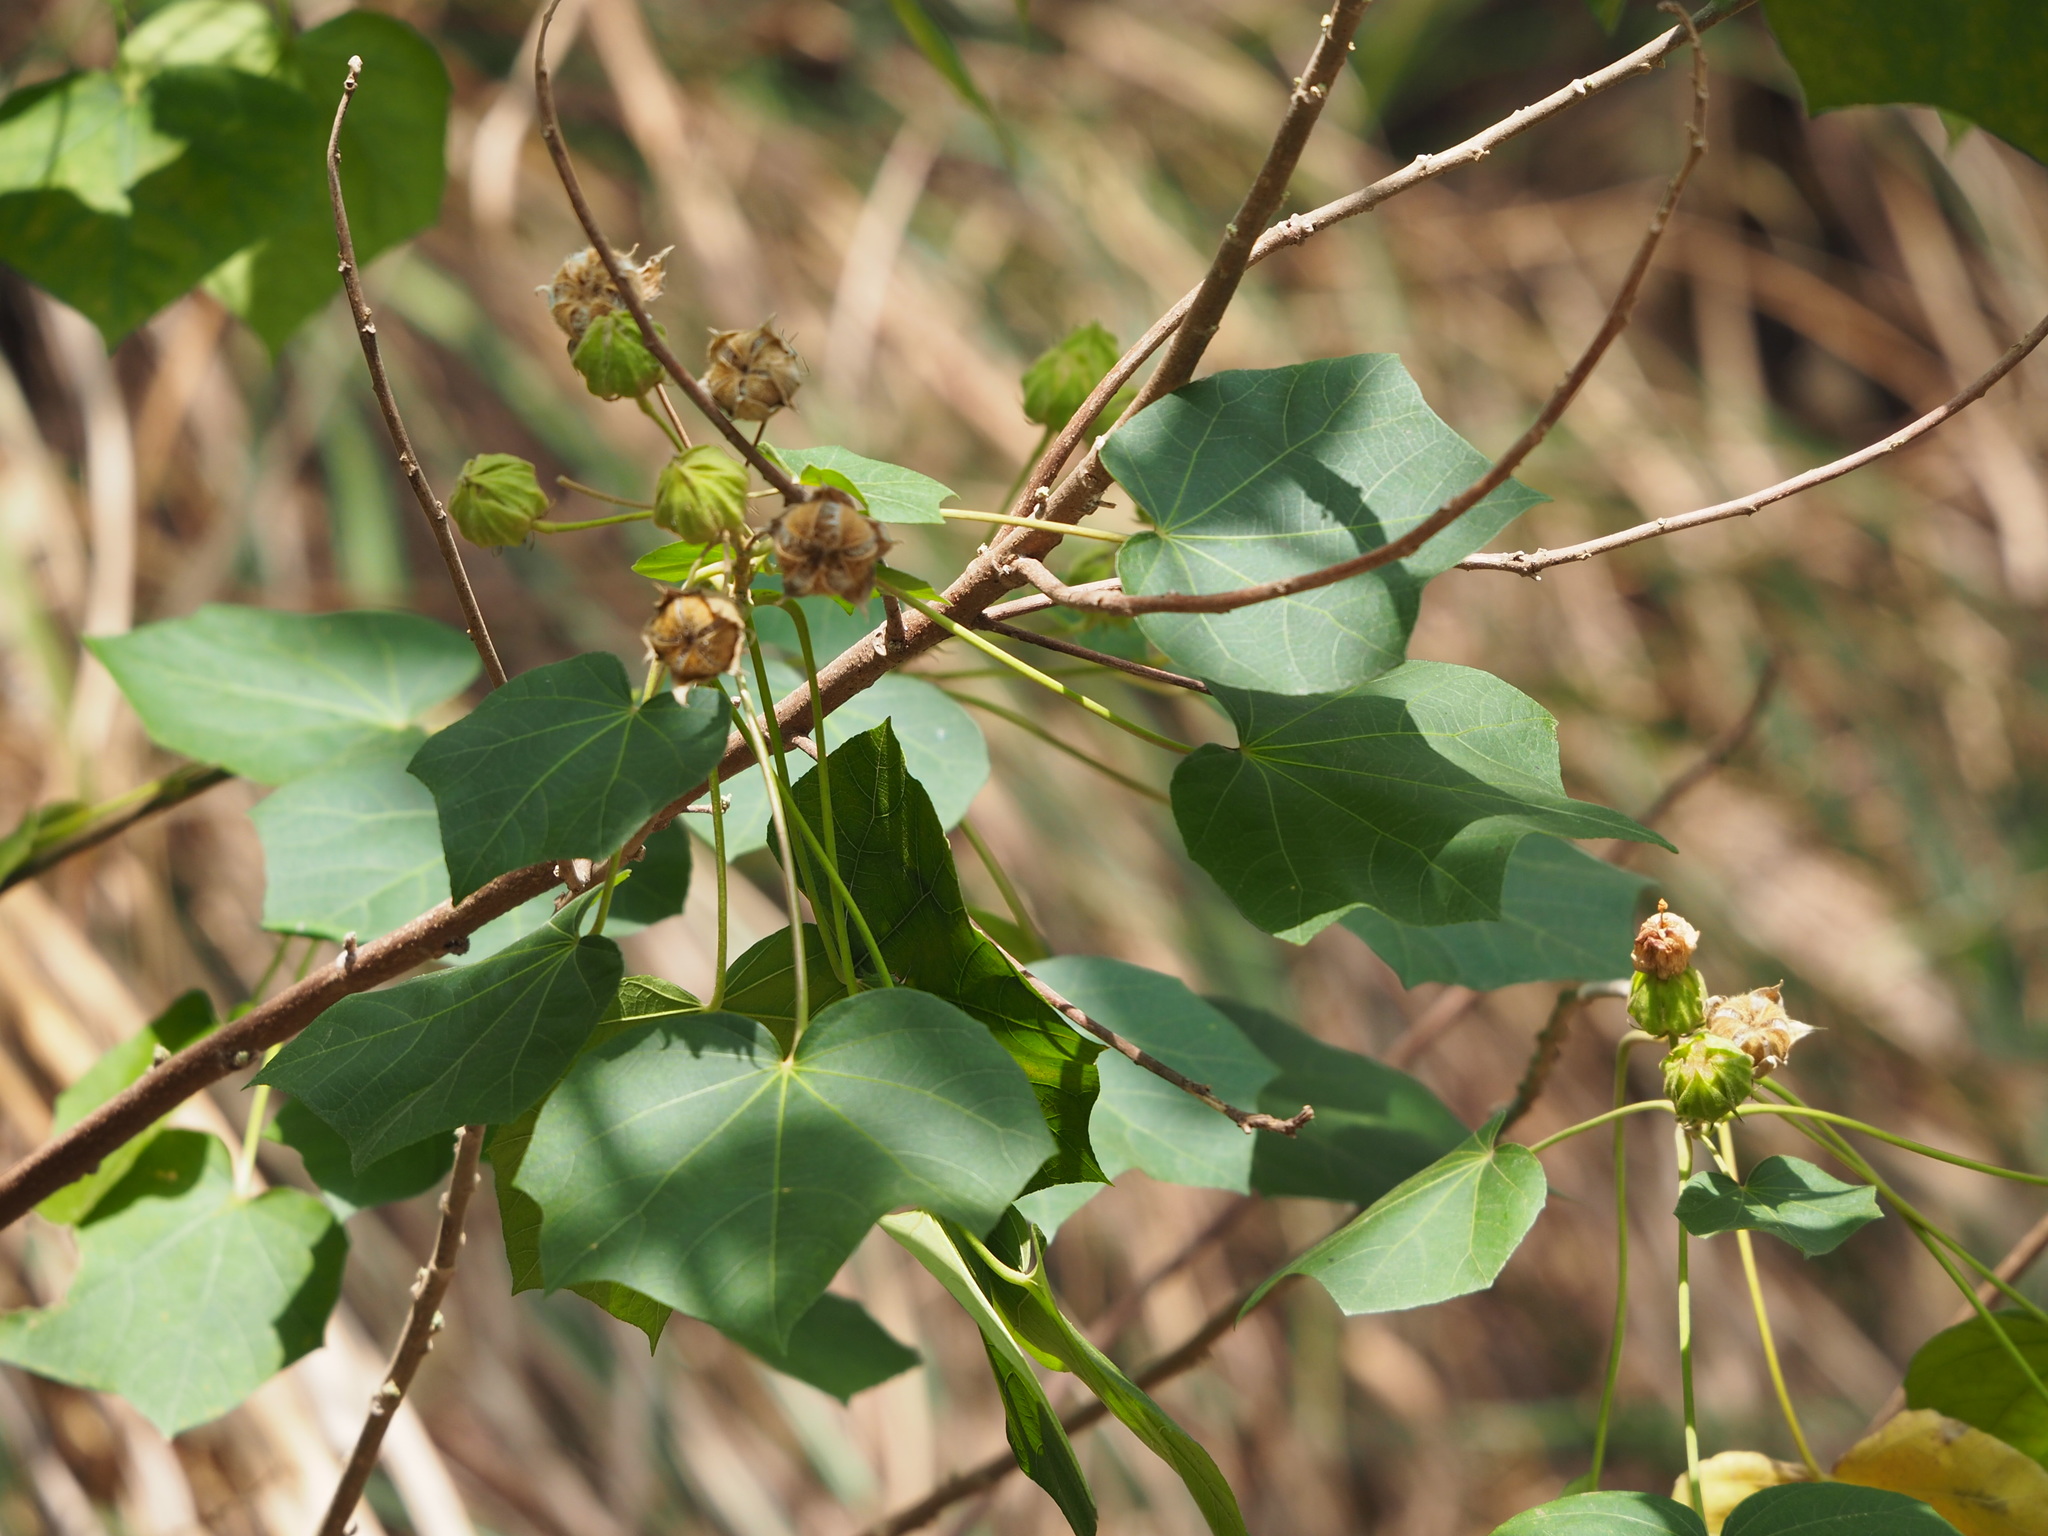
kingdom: Plantae
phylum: Tracheophyta
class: Magnoliopsida
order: Malvales
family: Malvaceae
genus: Hibiscus
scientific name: Hibiscus taiwanensis
